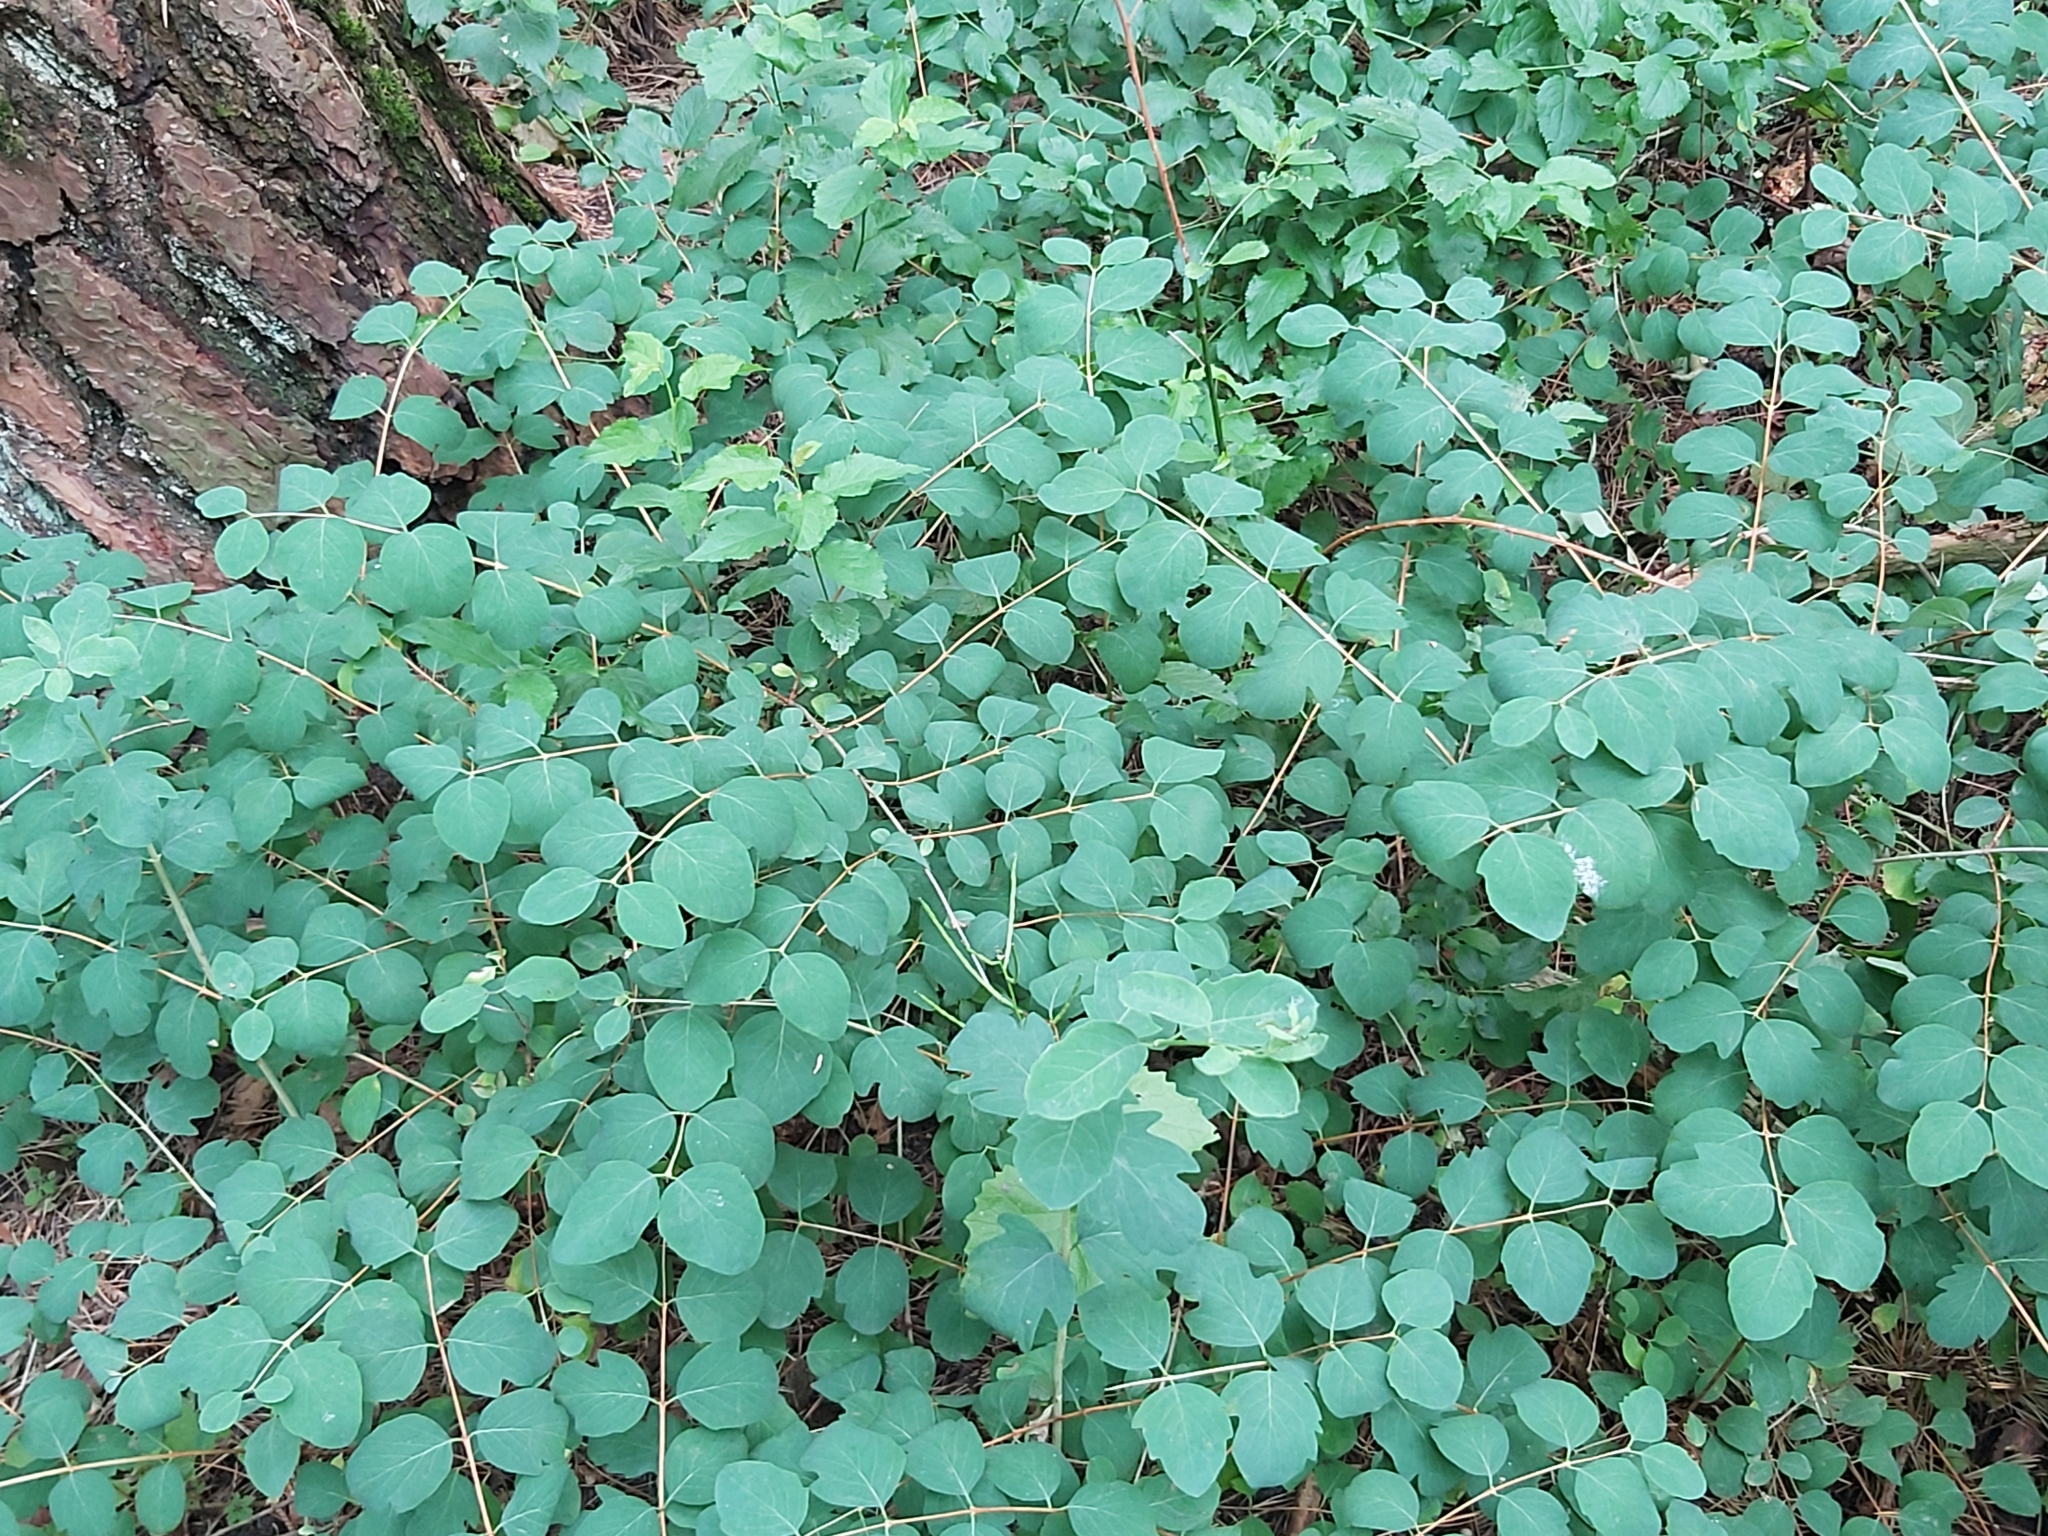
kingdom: Plantae
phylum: Tracheophyta
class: Magnoliopsida
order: Dipsacales
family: Caprifoliaceae
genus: Symphoricarpos
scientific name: Symphoricarpos albus
